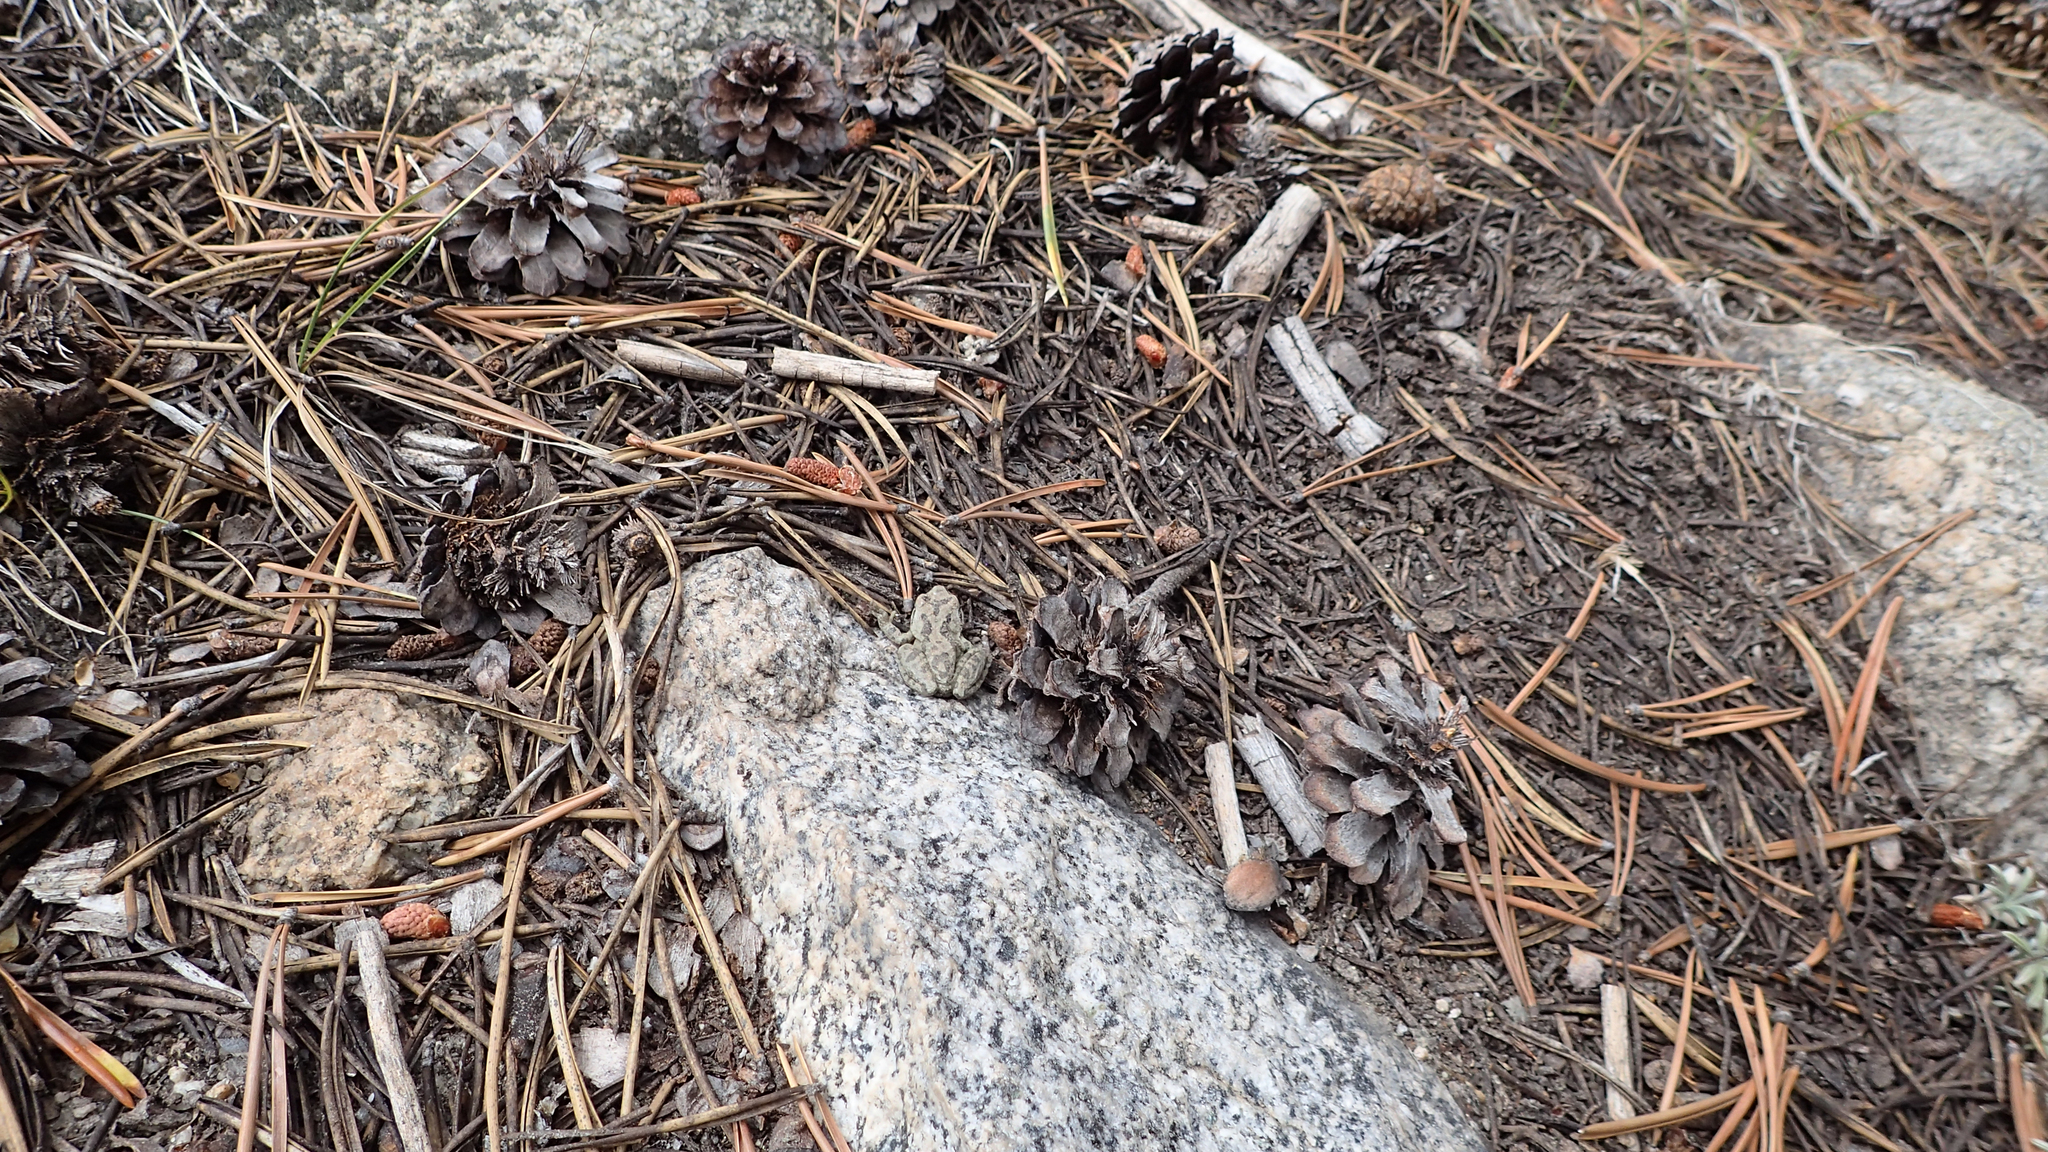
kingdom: Animalia
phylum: Chordata
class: Amphibia
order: Anura
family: Hylidae
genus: Pseudacris
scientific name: Pseudacris regilla
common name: Pacific chorus frog
